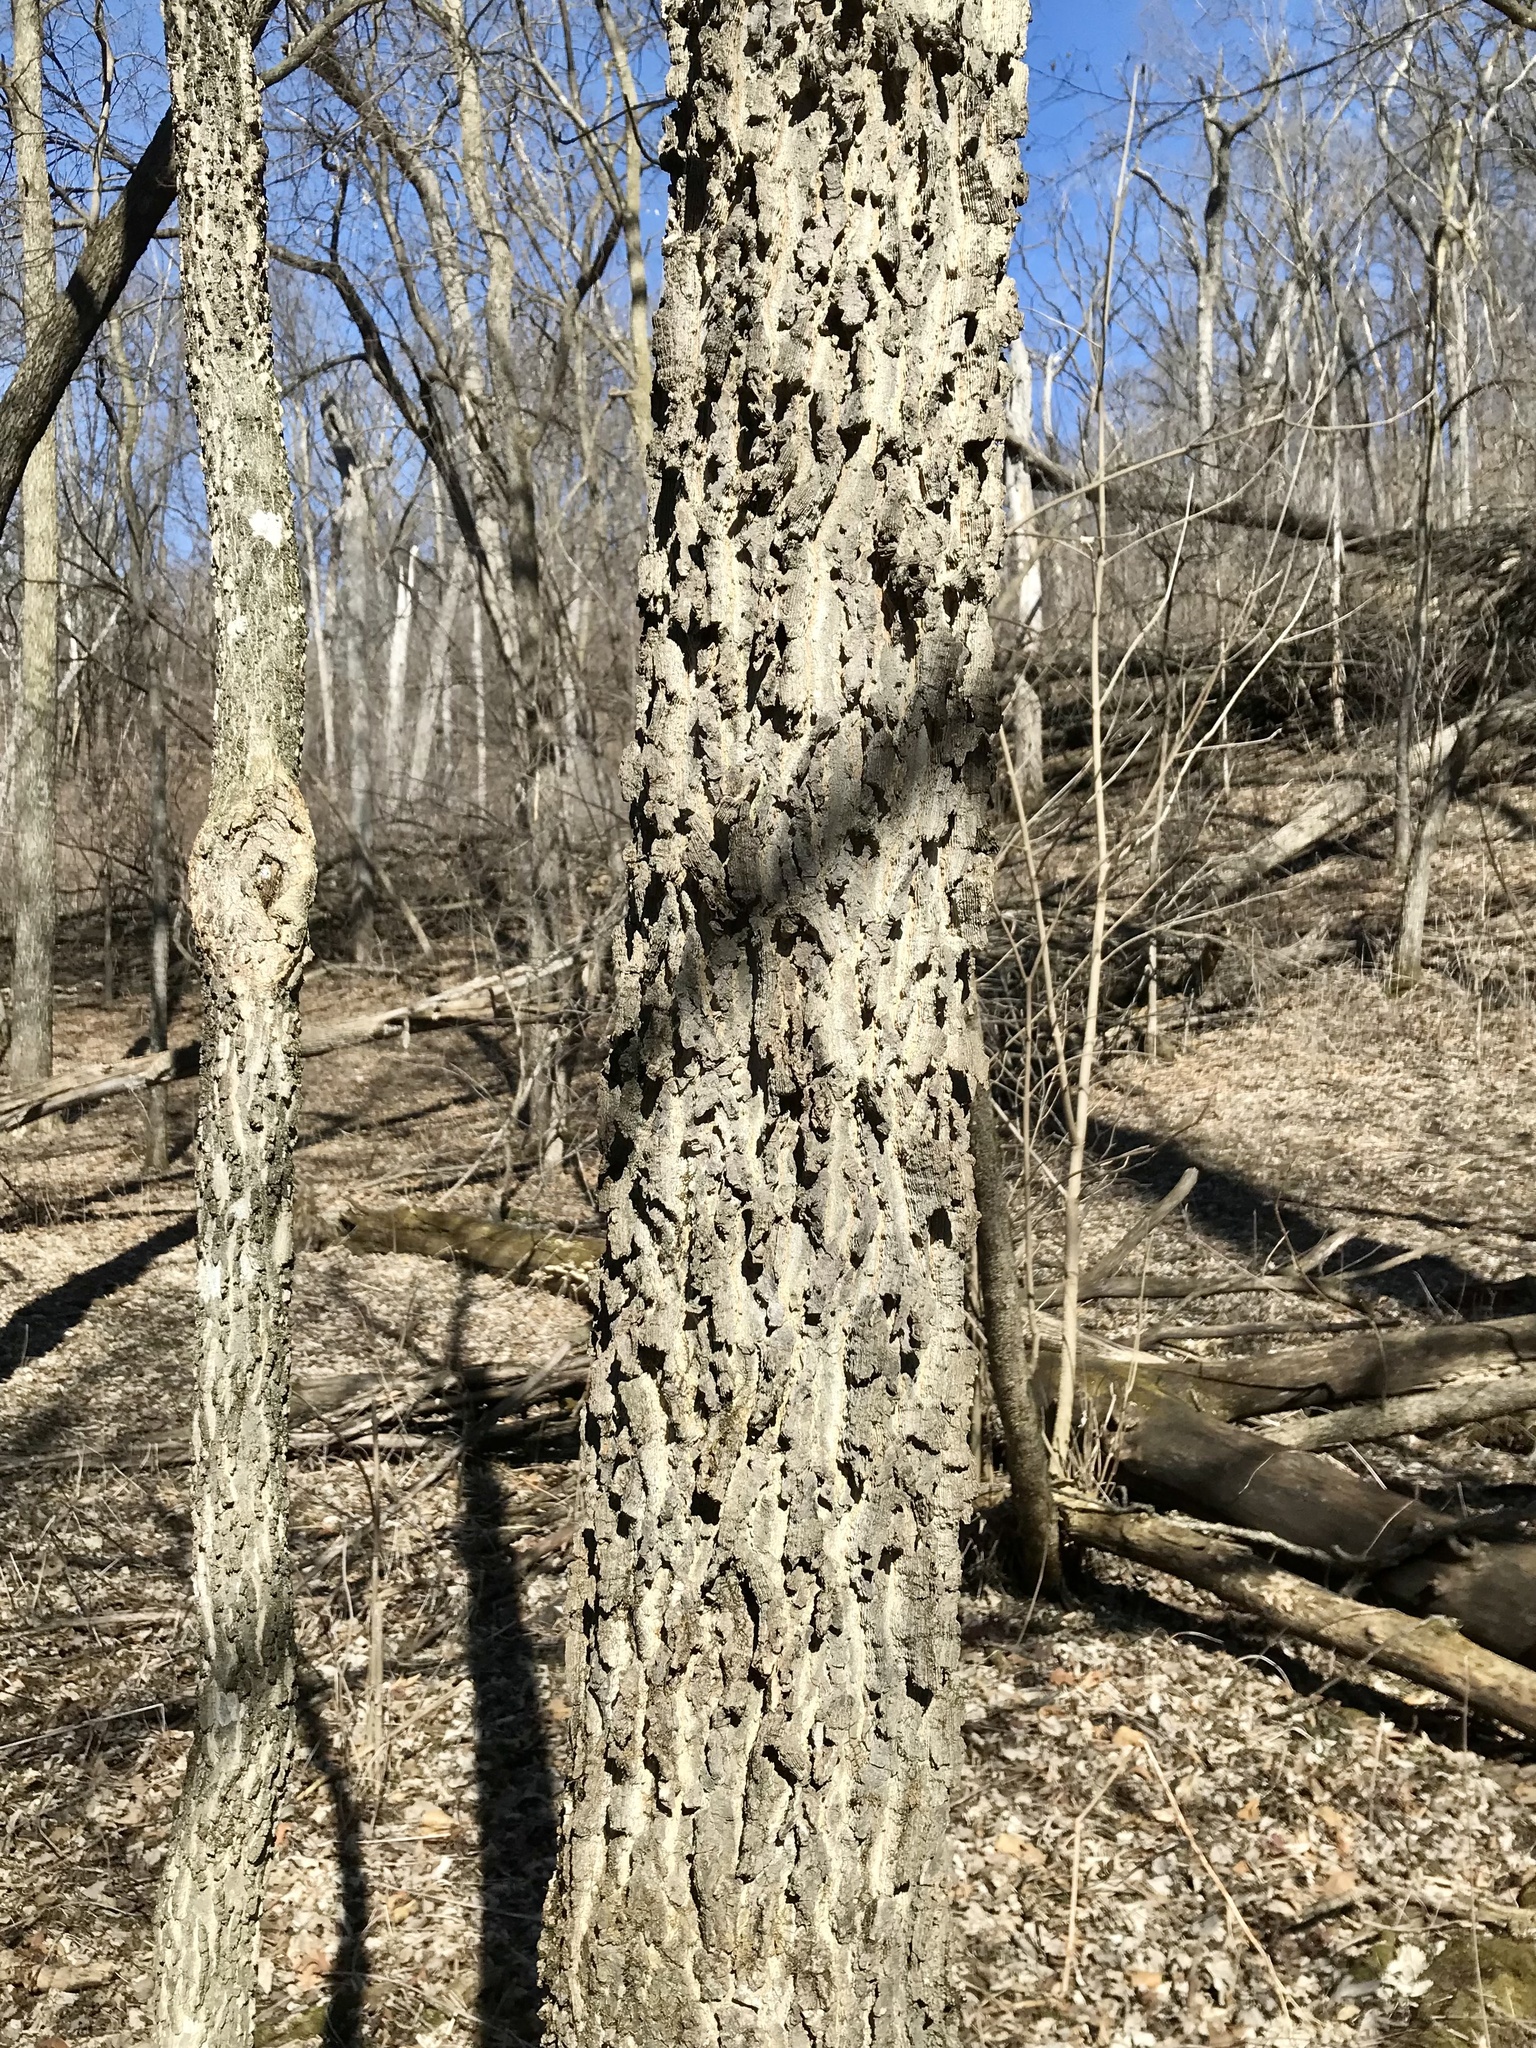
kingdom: Plantae
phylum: Tracheophyta
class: Magnoliopsida
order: Rosales
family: Cannabaceae
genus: Celtis
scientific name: Celtis occidentalis
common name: Common hackberry
